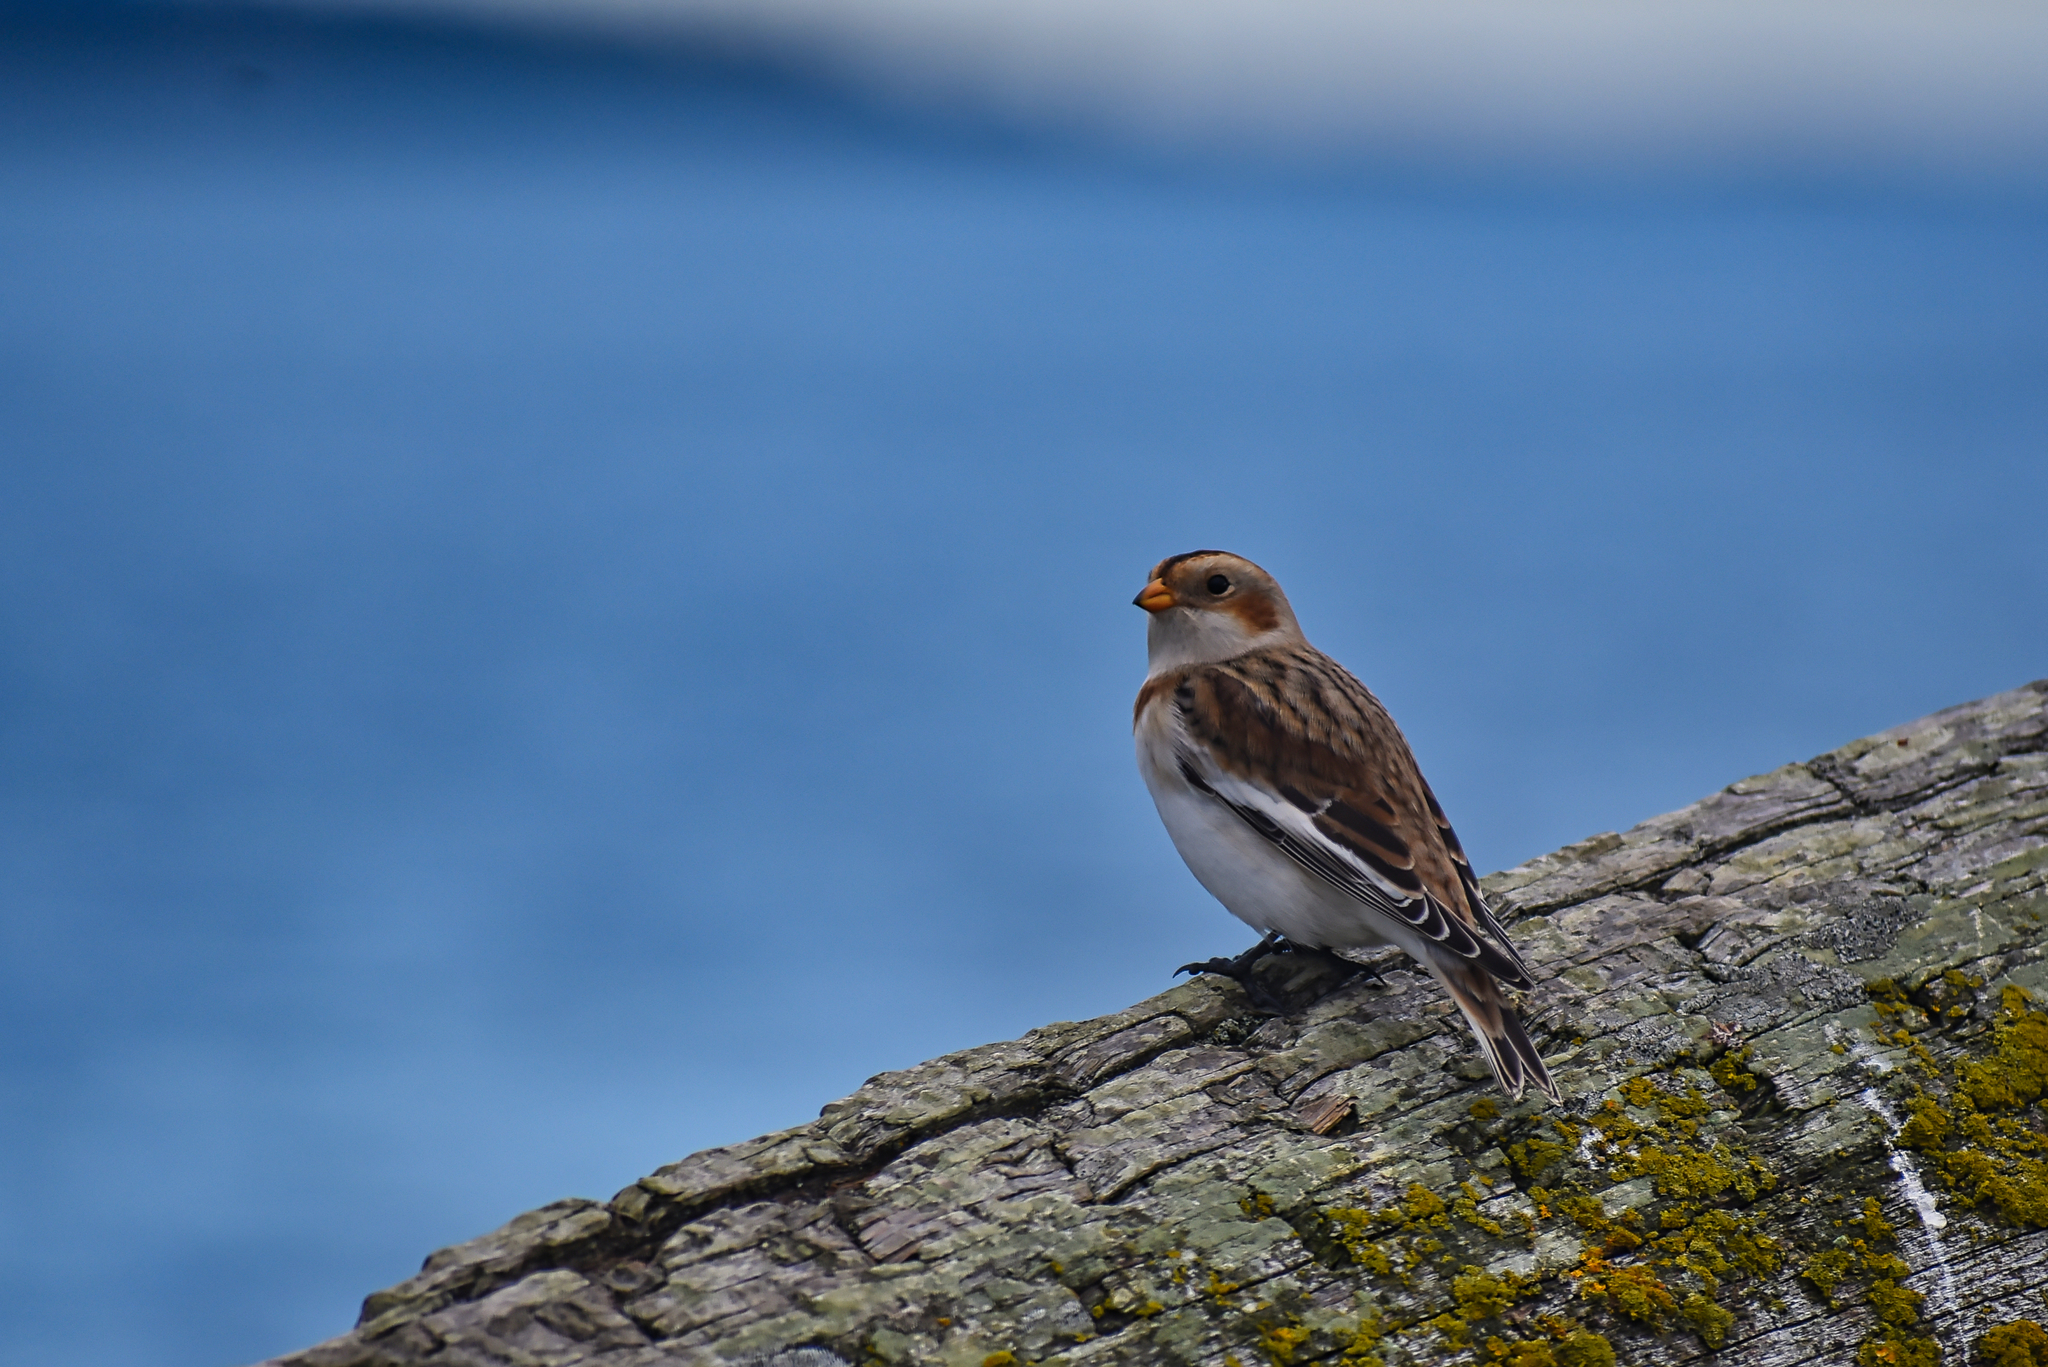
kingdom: Animalia
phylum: Chordata
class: Aves
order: Passeriformes
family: Calcariidae
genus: Plectrophenax
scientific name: Plectrophenax nivalis
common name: Snow bunting
